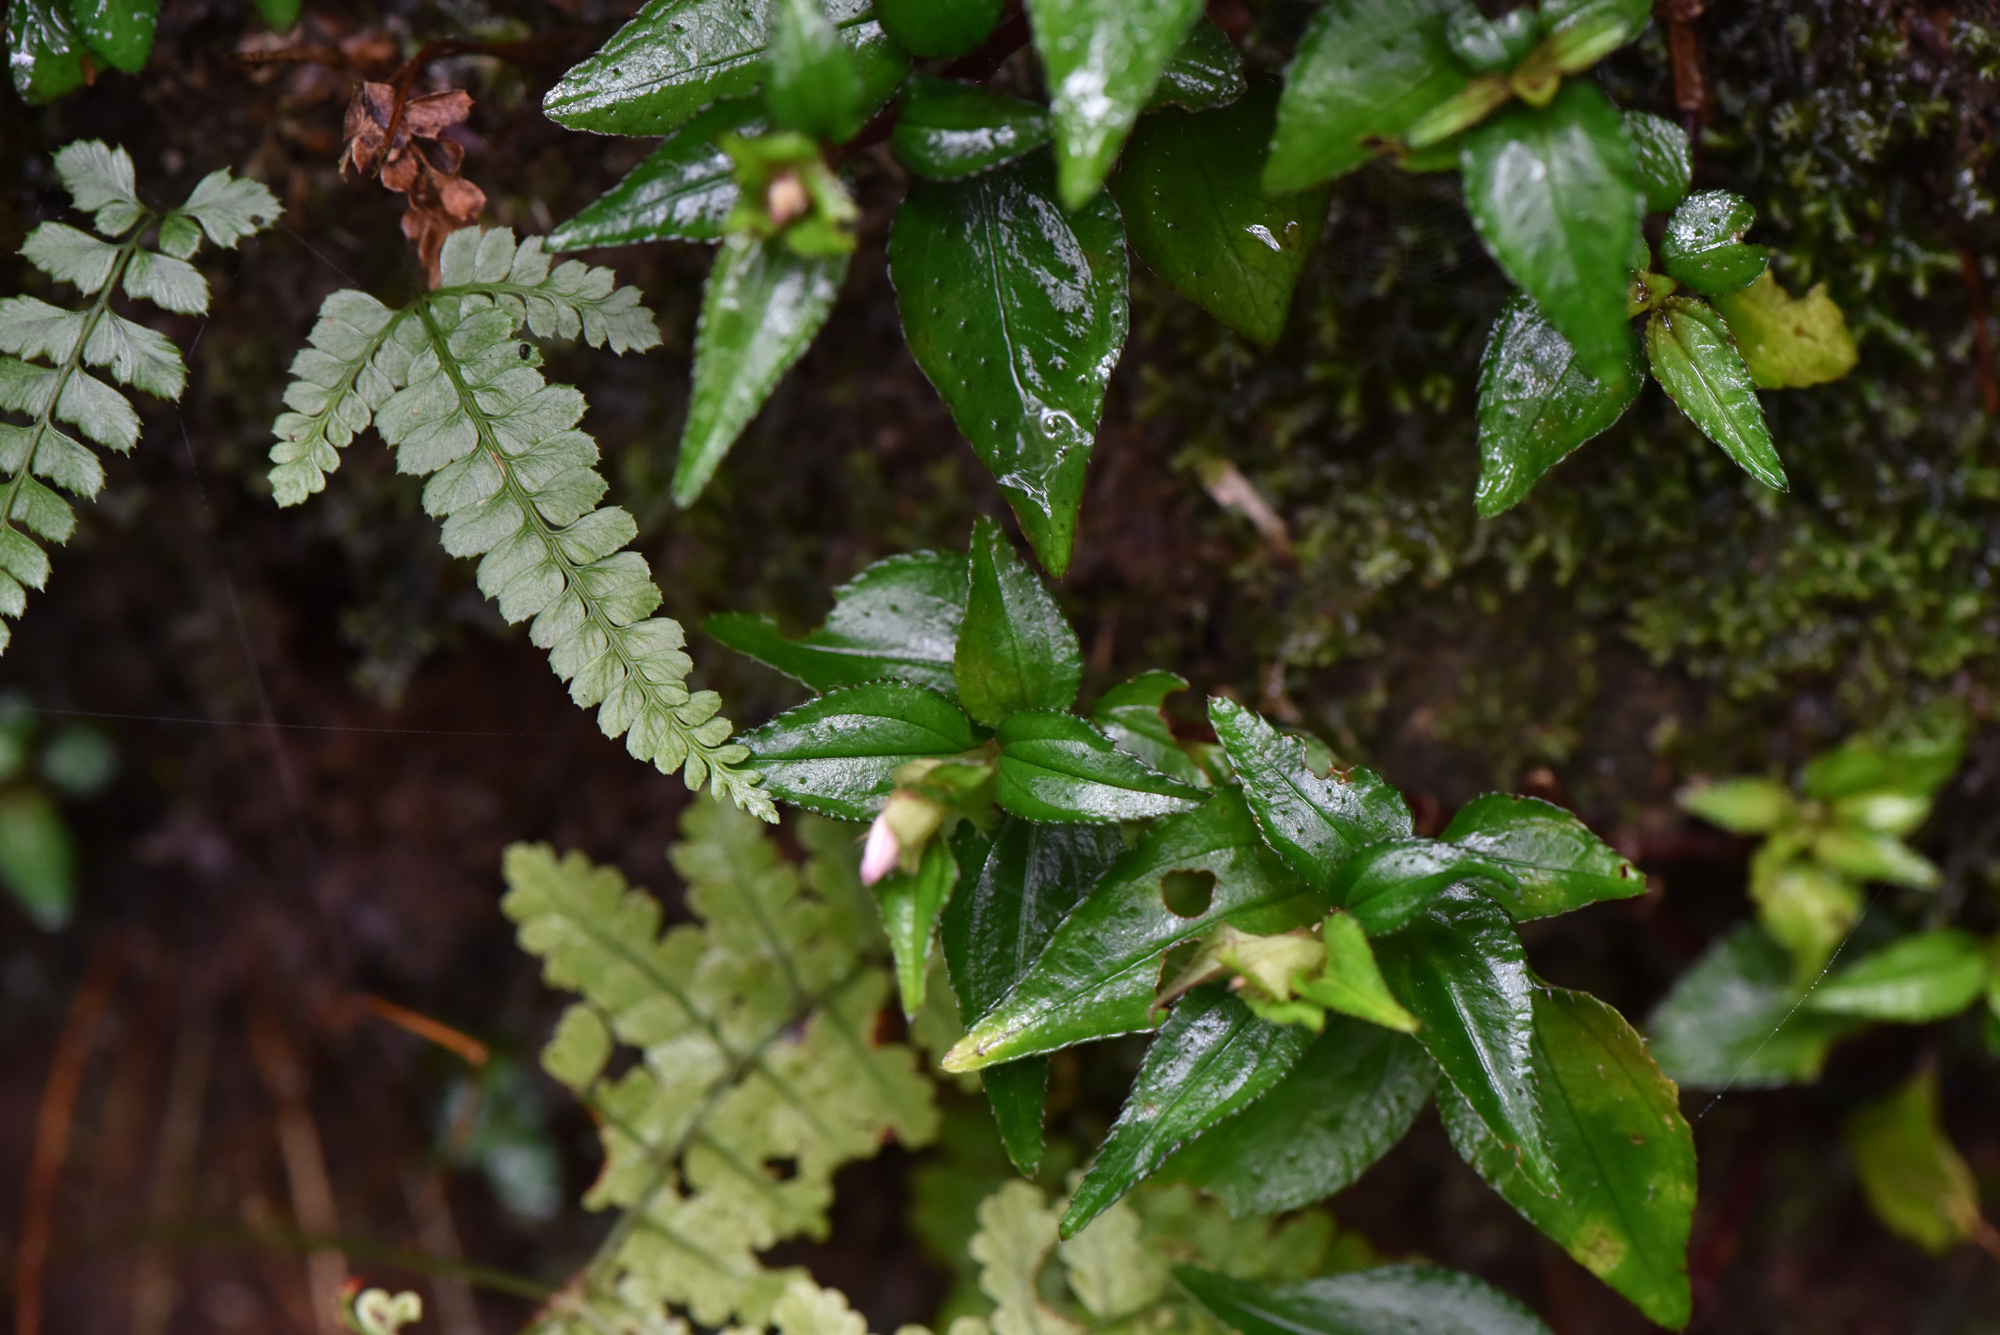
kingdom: Plantae
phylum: Tracheophyta
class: Magnoliopsida
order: Myrtales
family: Melastomataceae
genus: Sarcopyramis
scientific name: Sarcopyramis bodinieri
